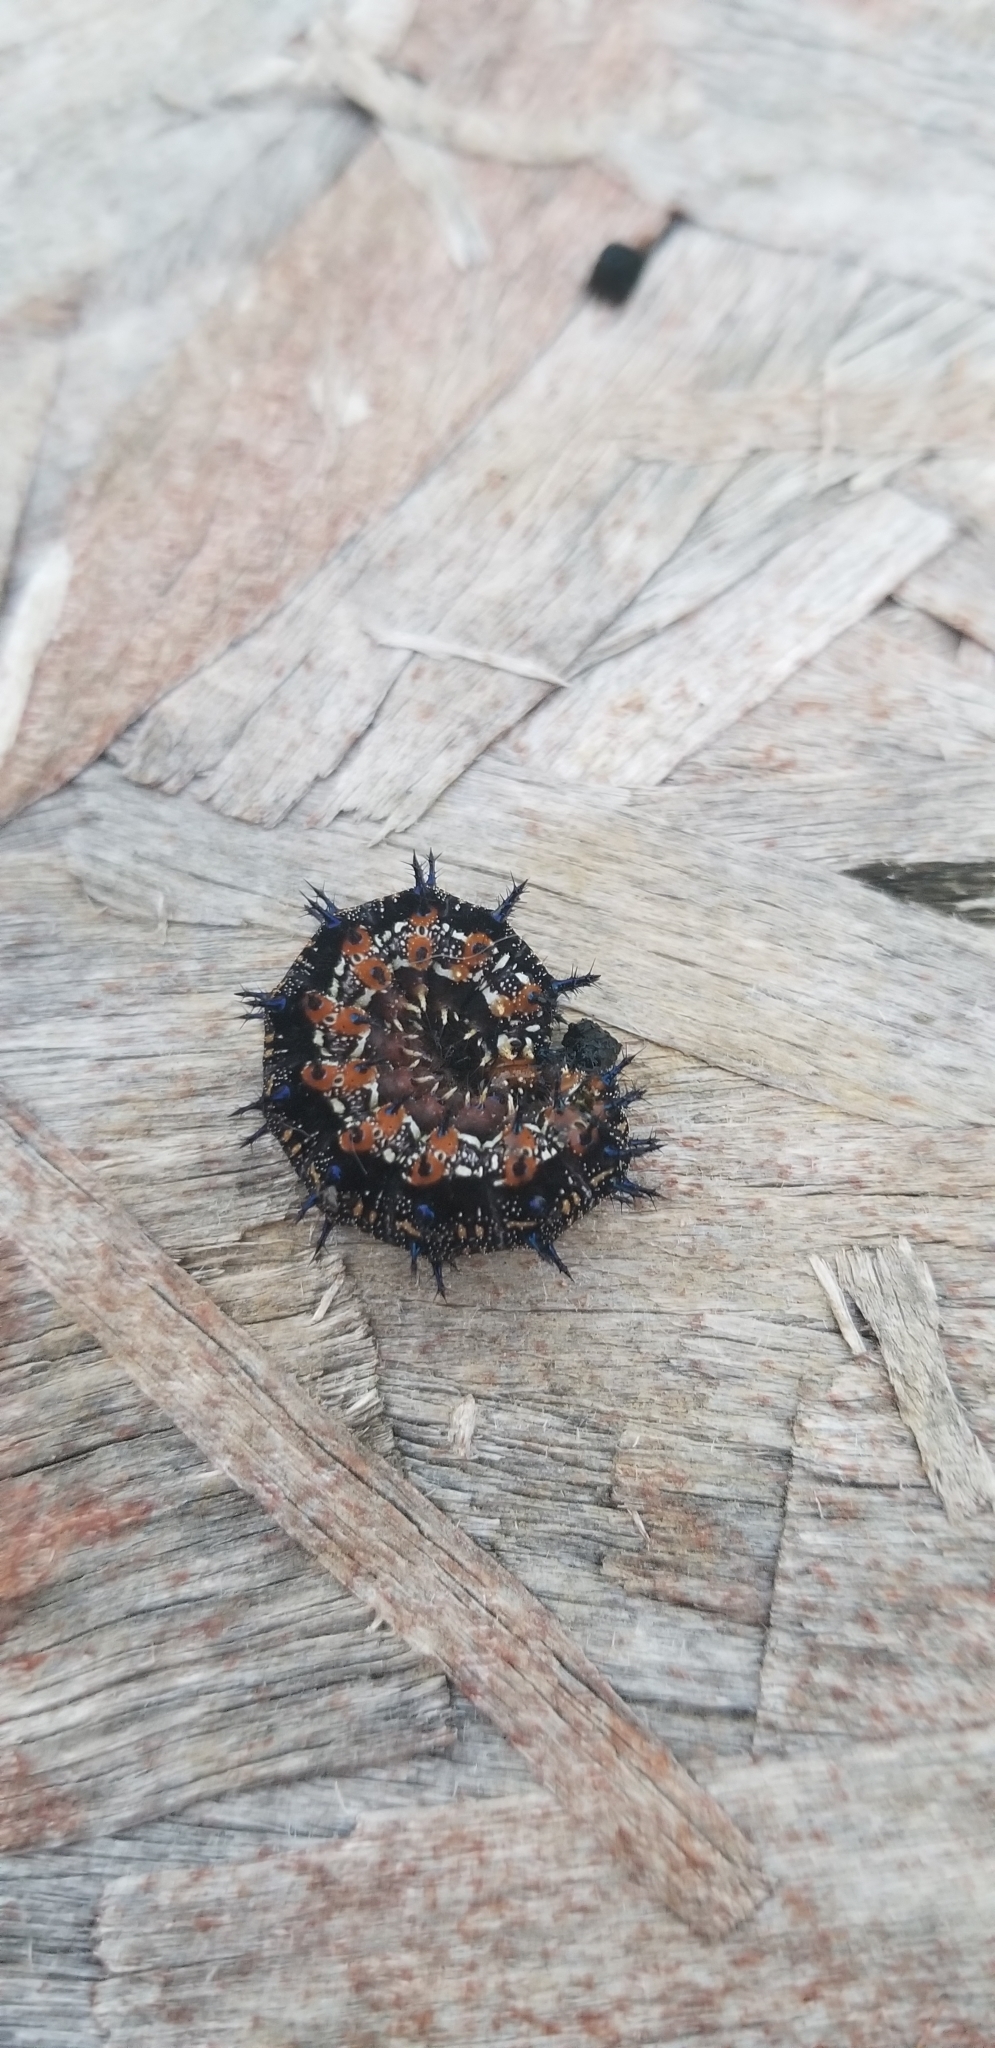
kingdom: Animalia
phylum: Arthropoda
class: Insecta
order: Lepidoptera
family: Nymphalidae
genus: Junonia
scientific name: Junonia coenia
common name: Common buckeye
